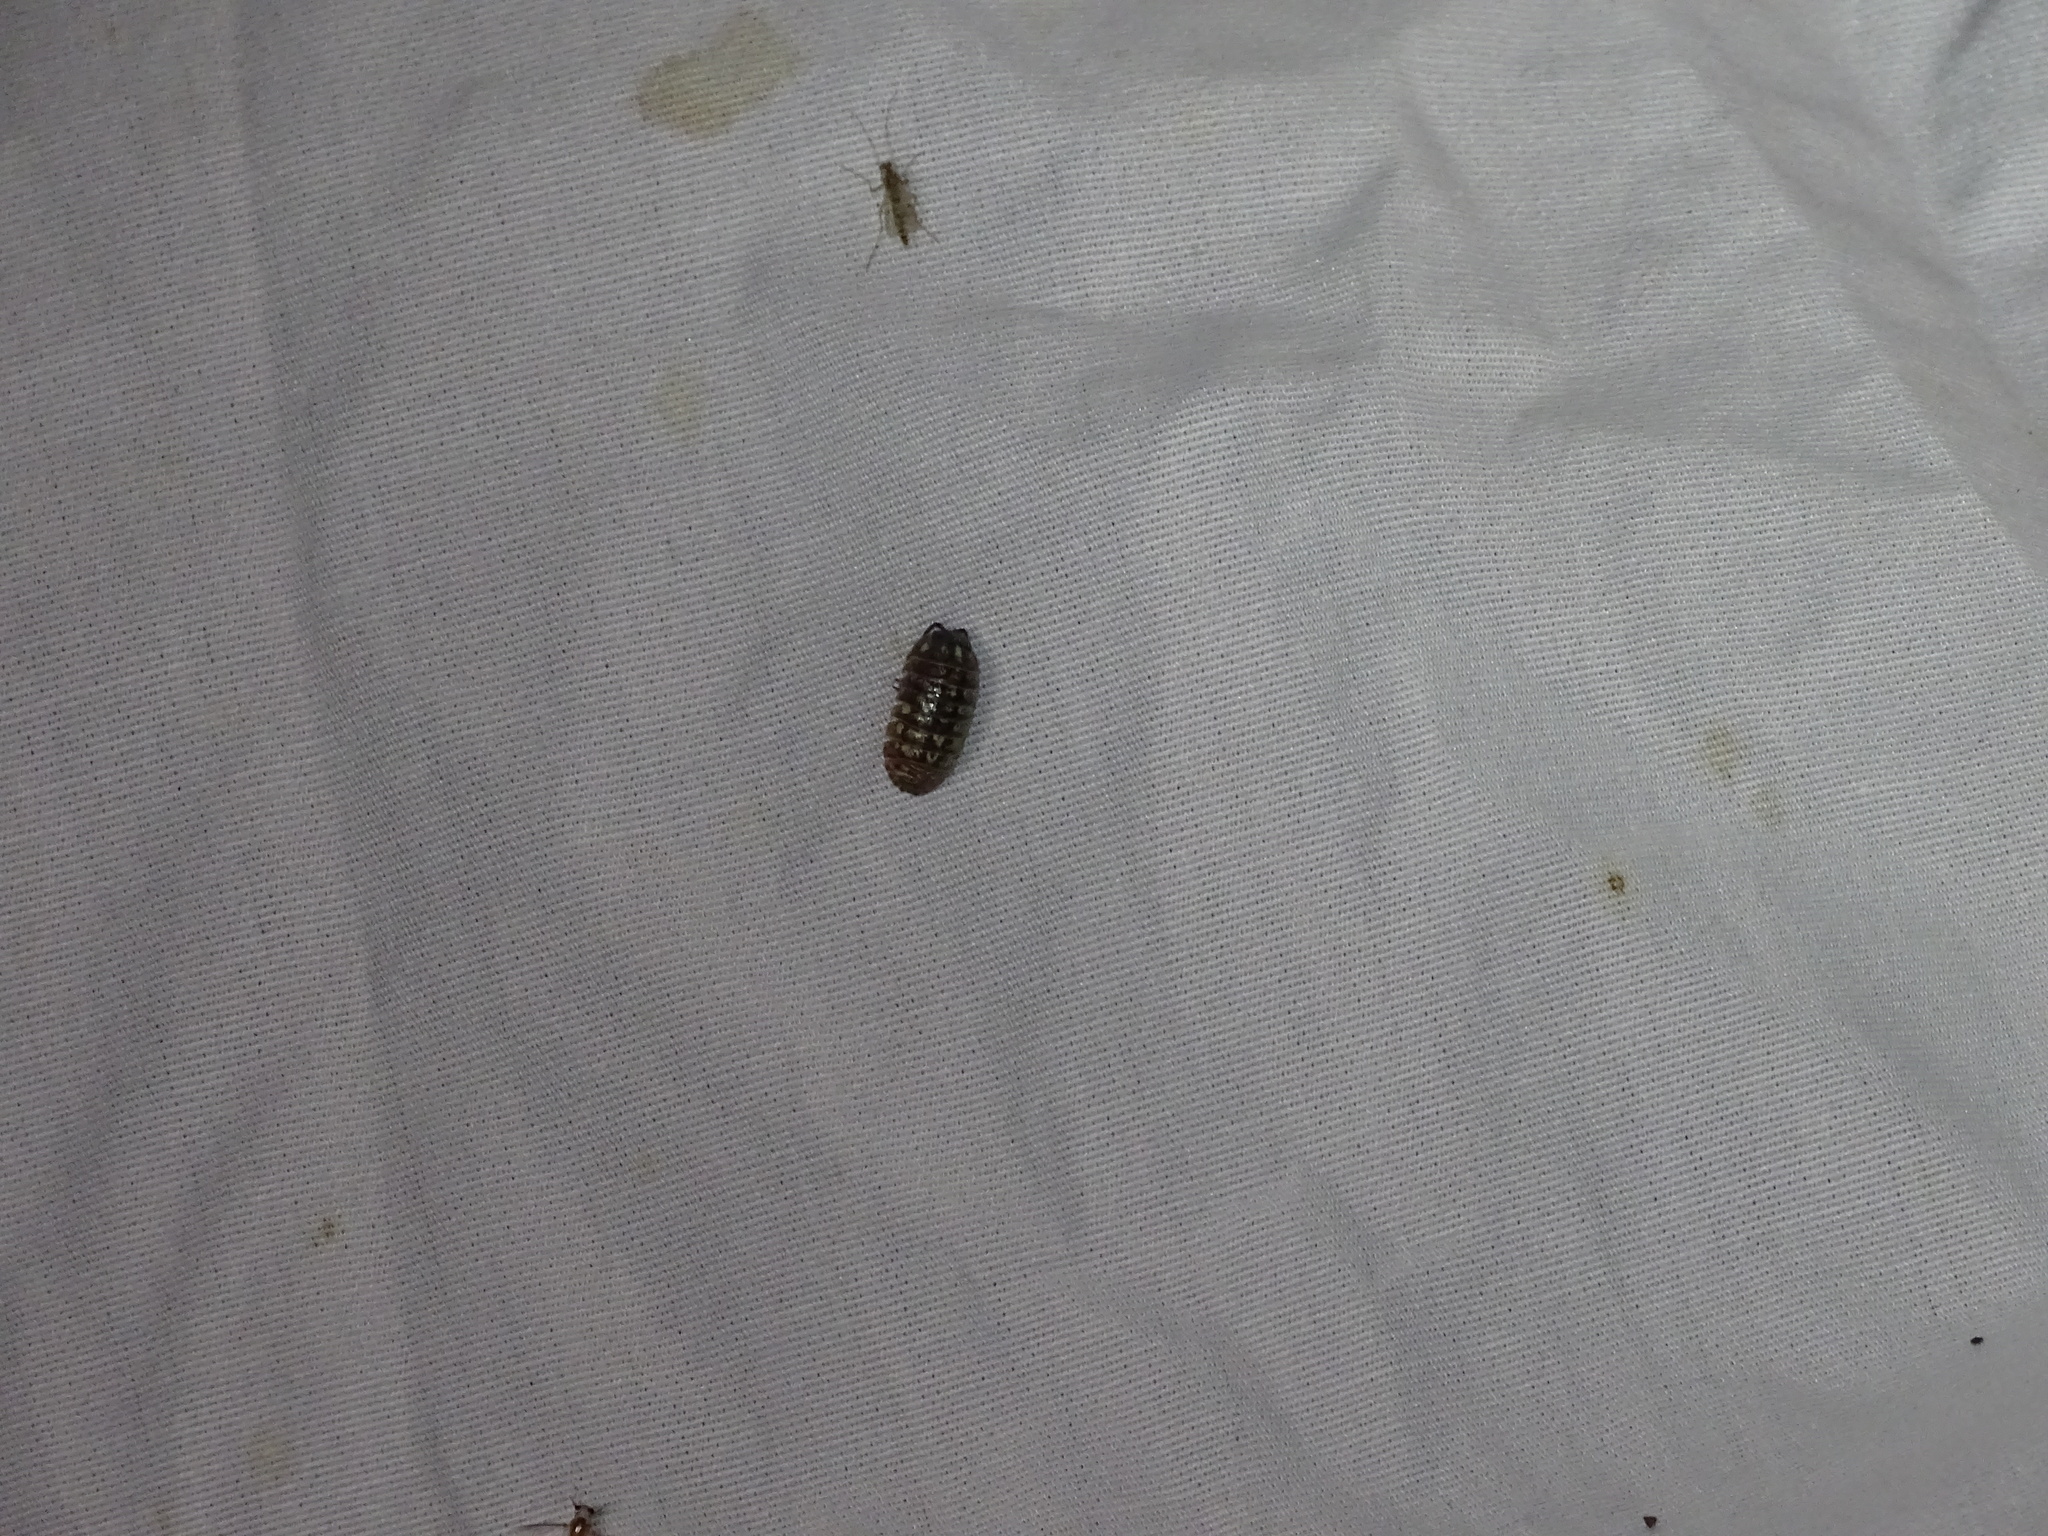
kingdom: Animalia
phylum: Arthropoda
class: Malacostraca
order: Isopoda
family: Armadillidiidae
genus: Armadillidium
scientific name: Armadillidium vulgare
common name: Common pill woodlouse
